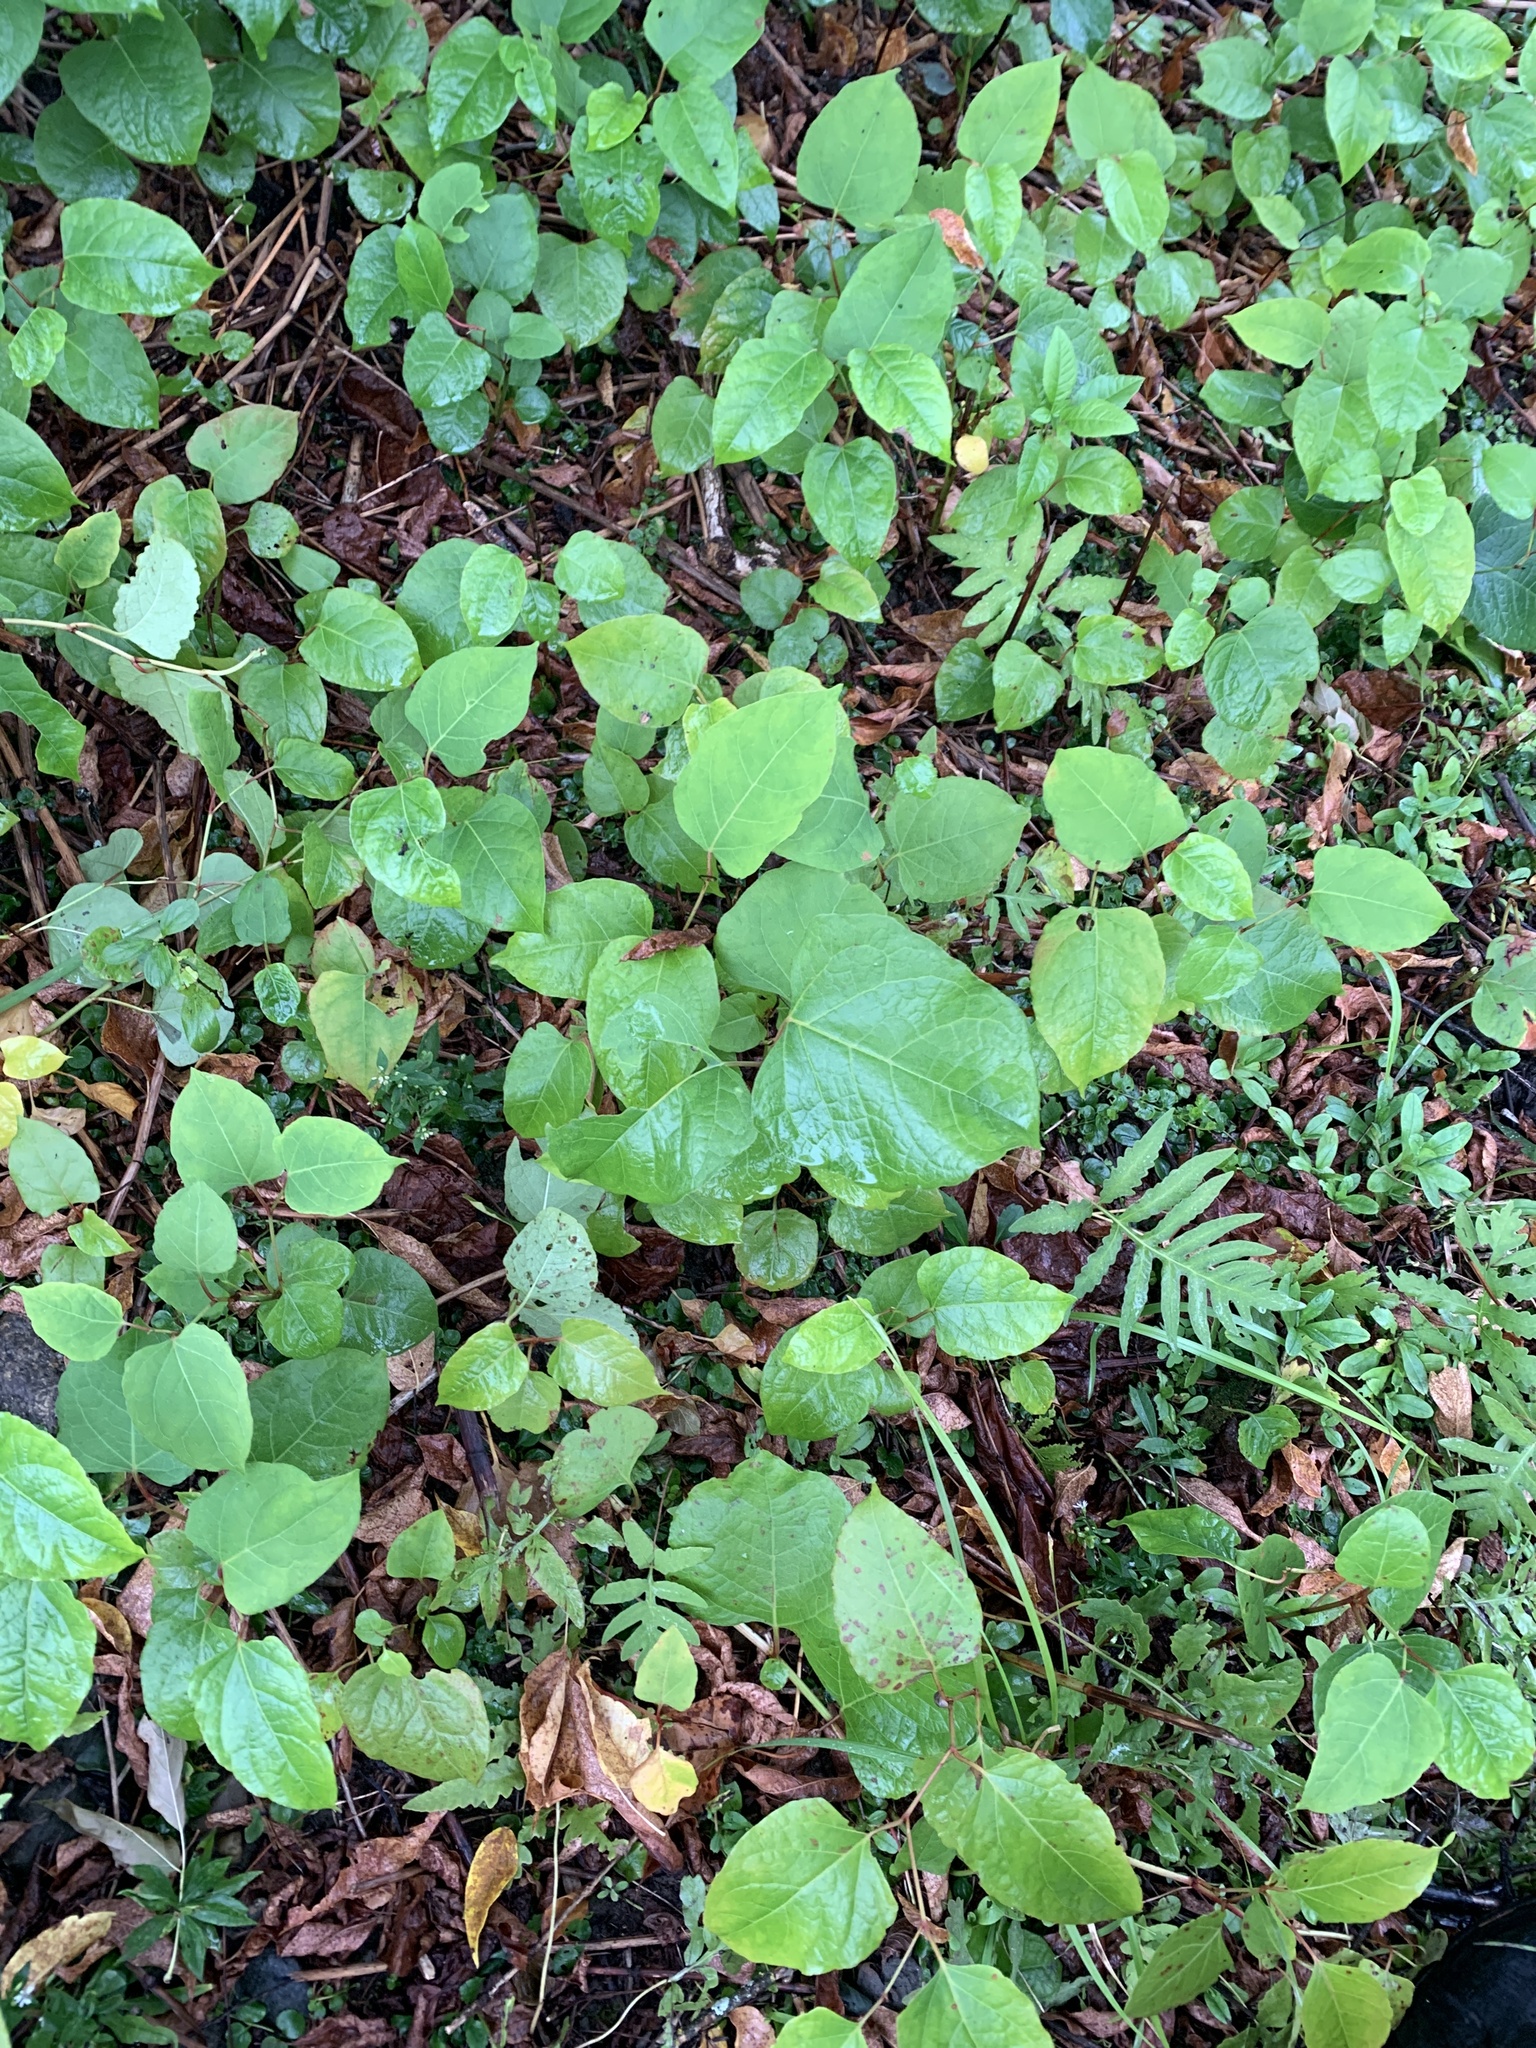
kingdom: Plantae
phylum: Tracheophyta
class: Magnoliopsida
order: Caryophyllales
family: Polygonaceae
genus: Reynoutria
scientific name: Reynoutria japonica
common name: Japanese knotweed
